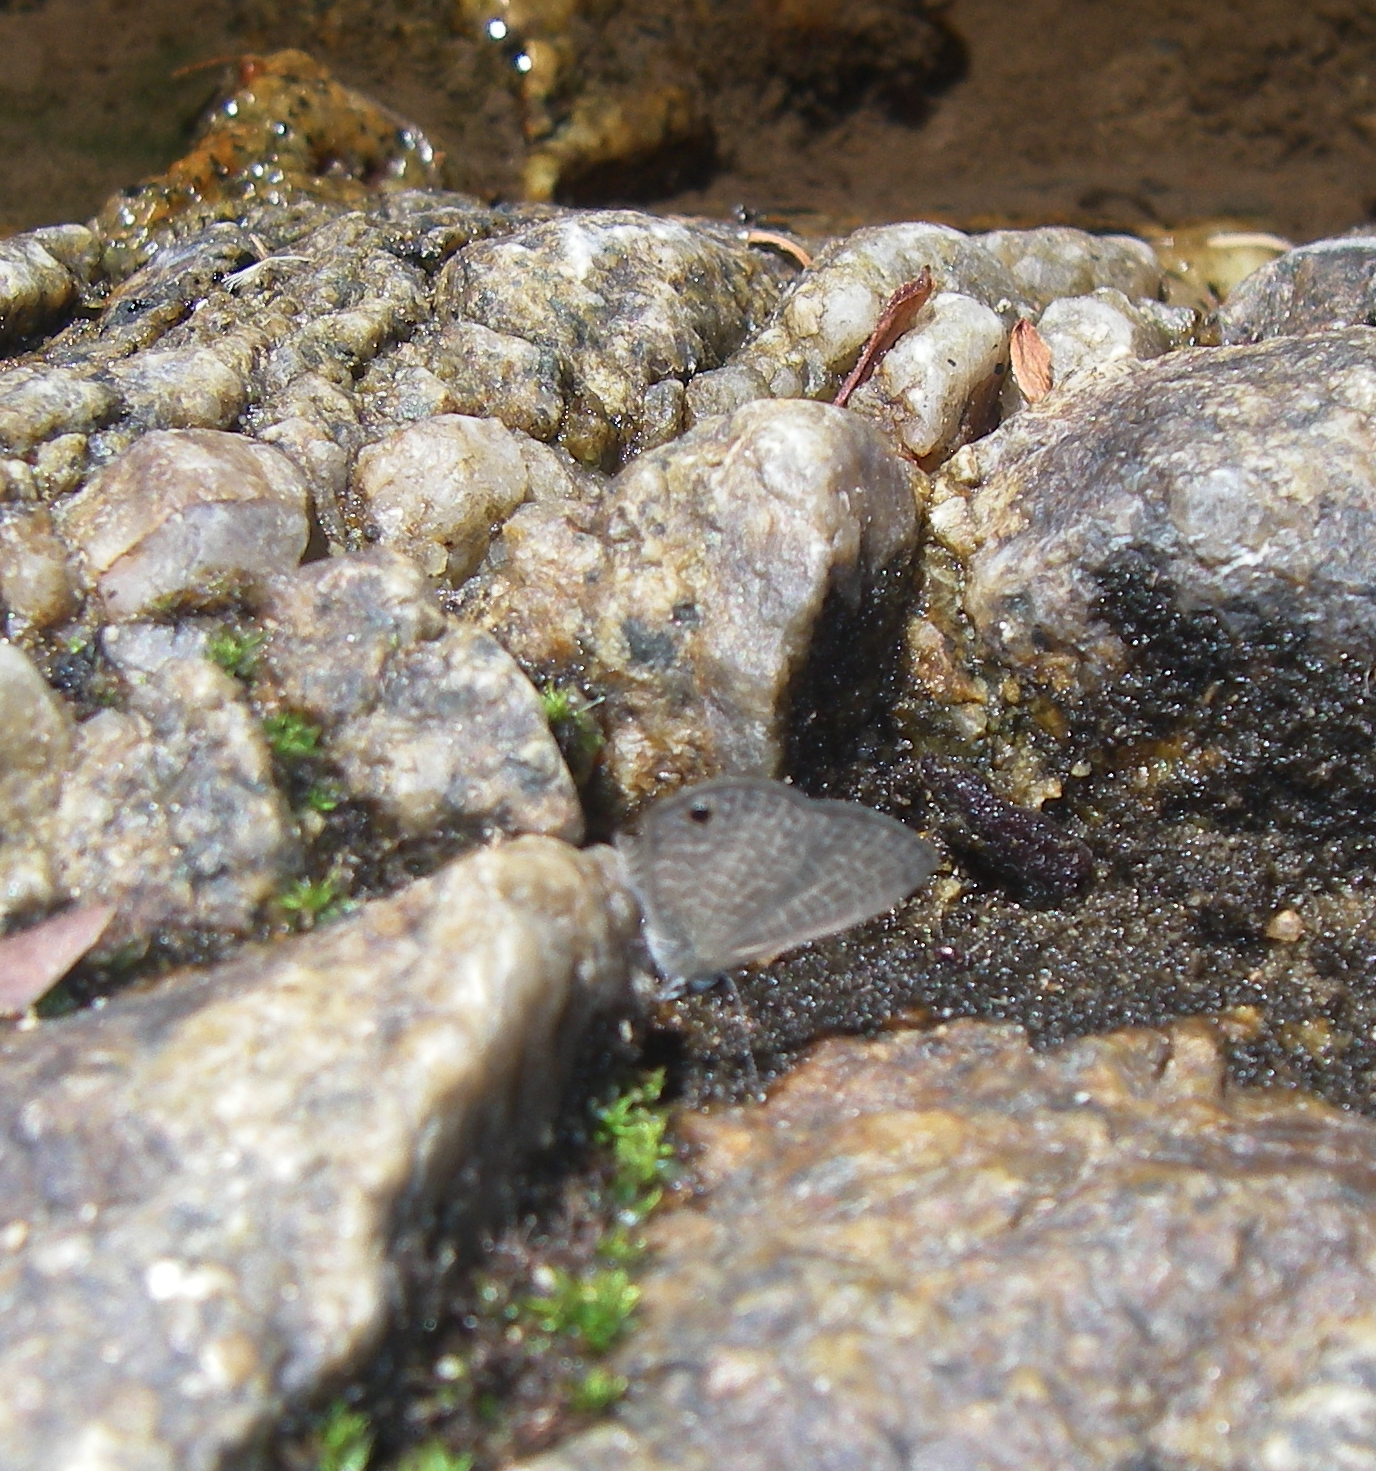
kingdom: Animalia
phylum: Arthropoda
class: Insecta
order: Lepidoptera
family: Lycaenidae
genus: Prosotas
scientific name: Prosotas dubiosa
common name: Tailless lineblue
